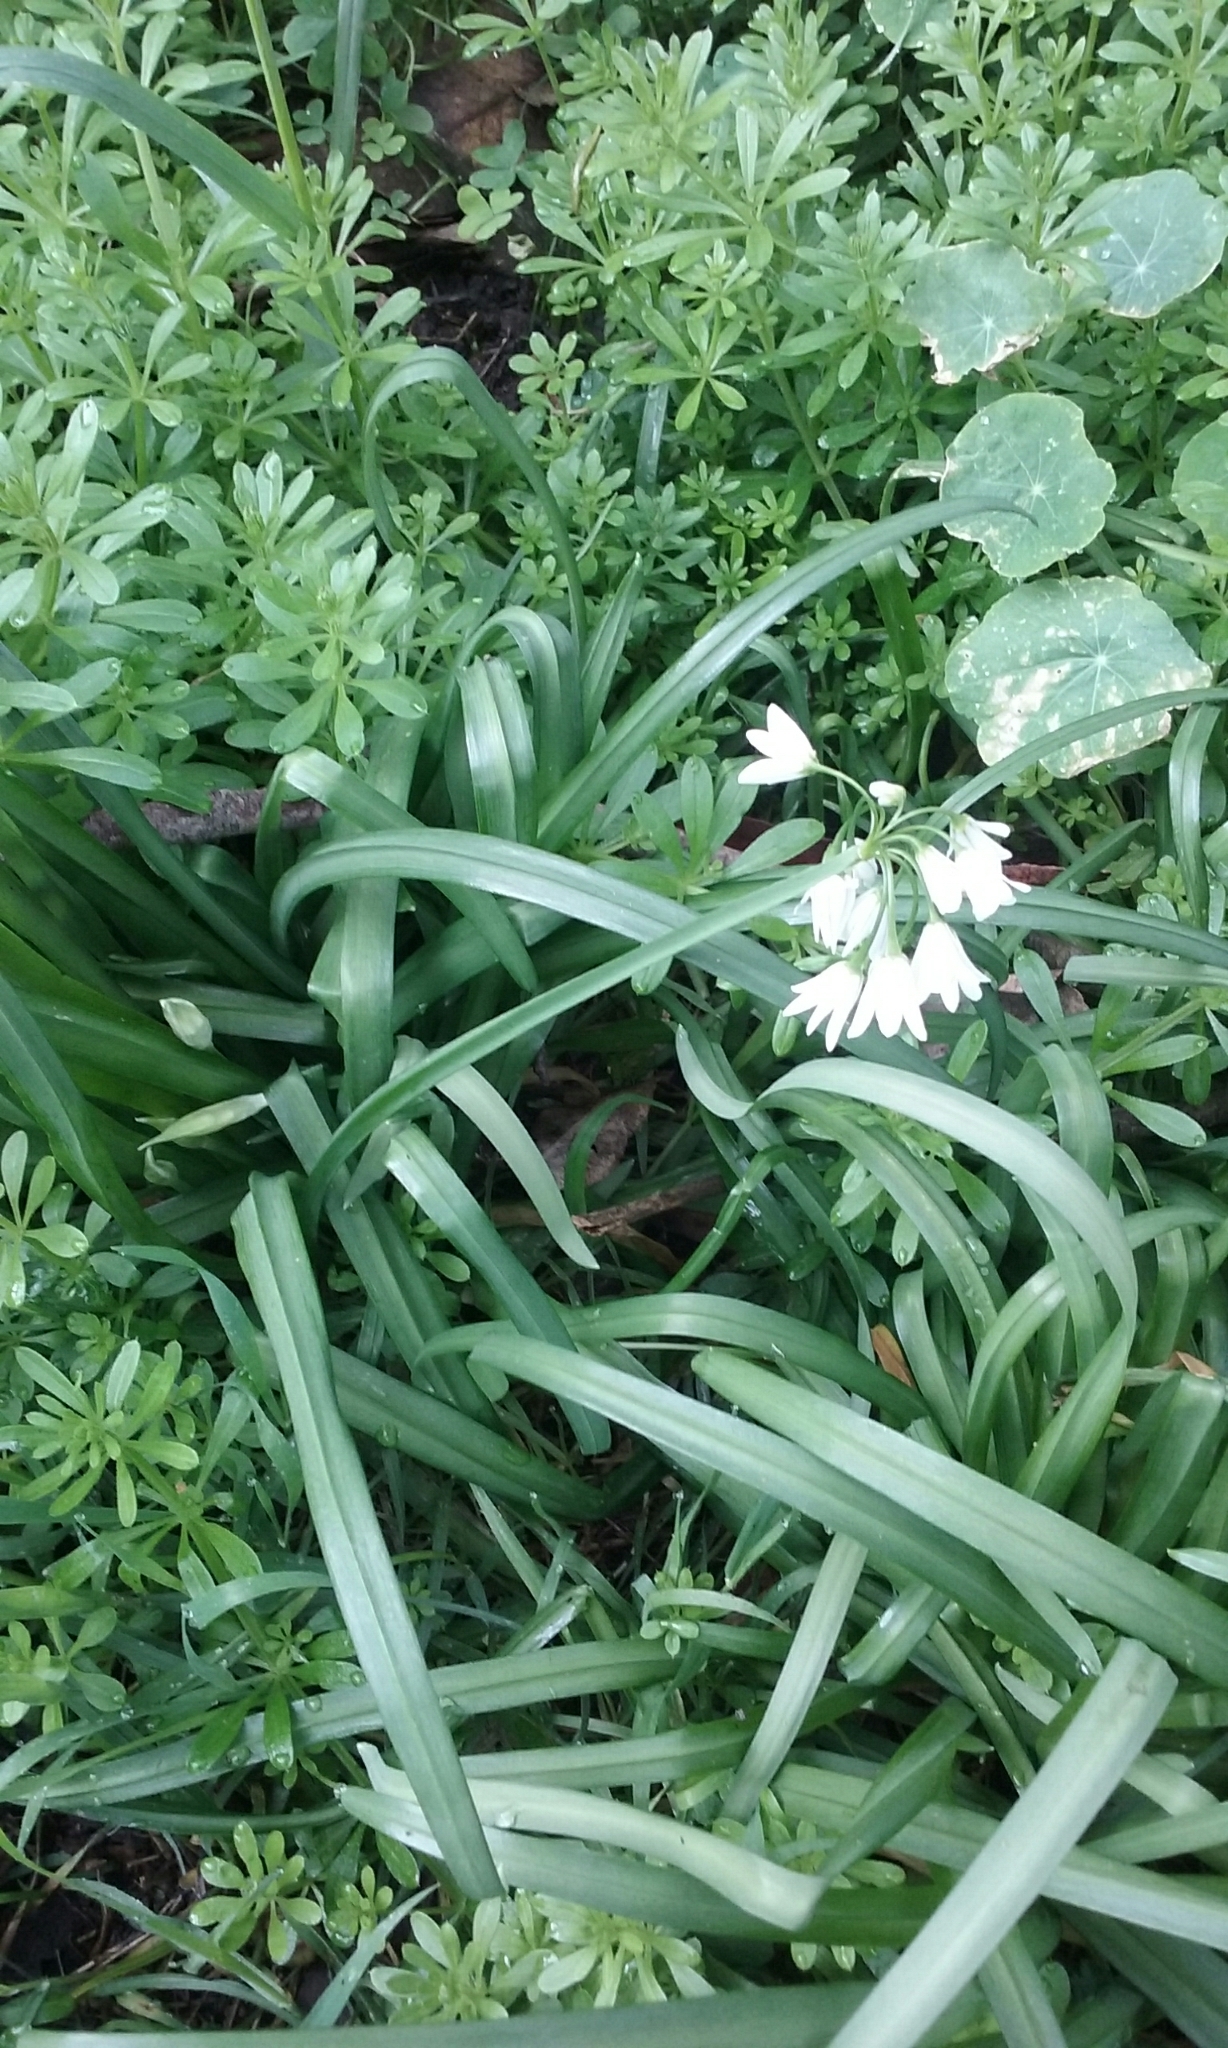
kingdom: Plantae
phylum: Tracheophyta
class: Liliopsida
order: Asparagales
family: Amaryllidaceae
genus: Allium
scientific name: Allium triquetrum
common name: Three-cornered garlic
